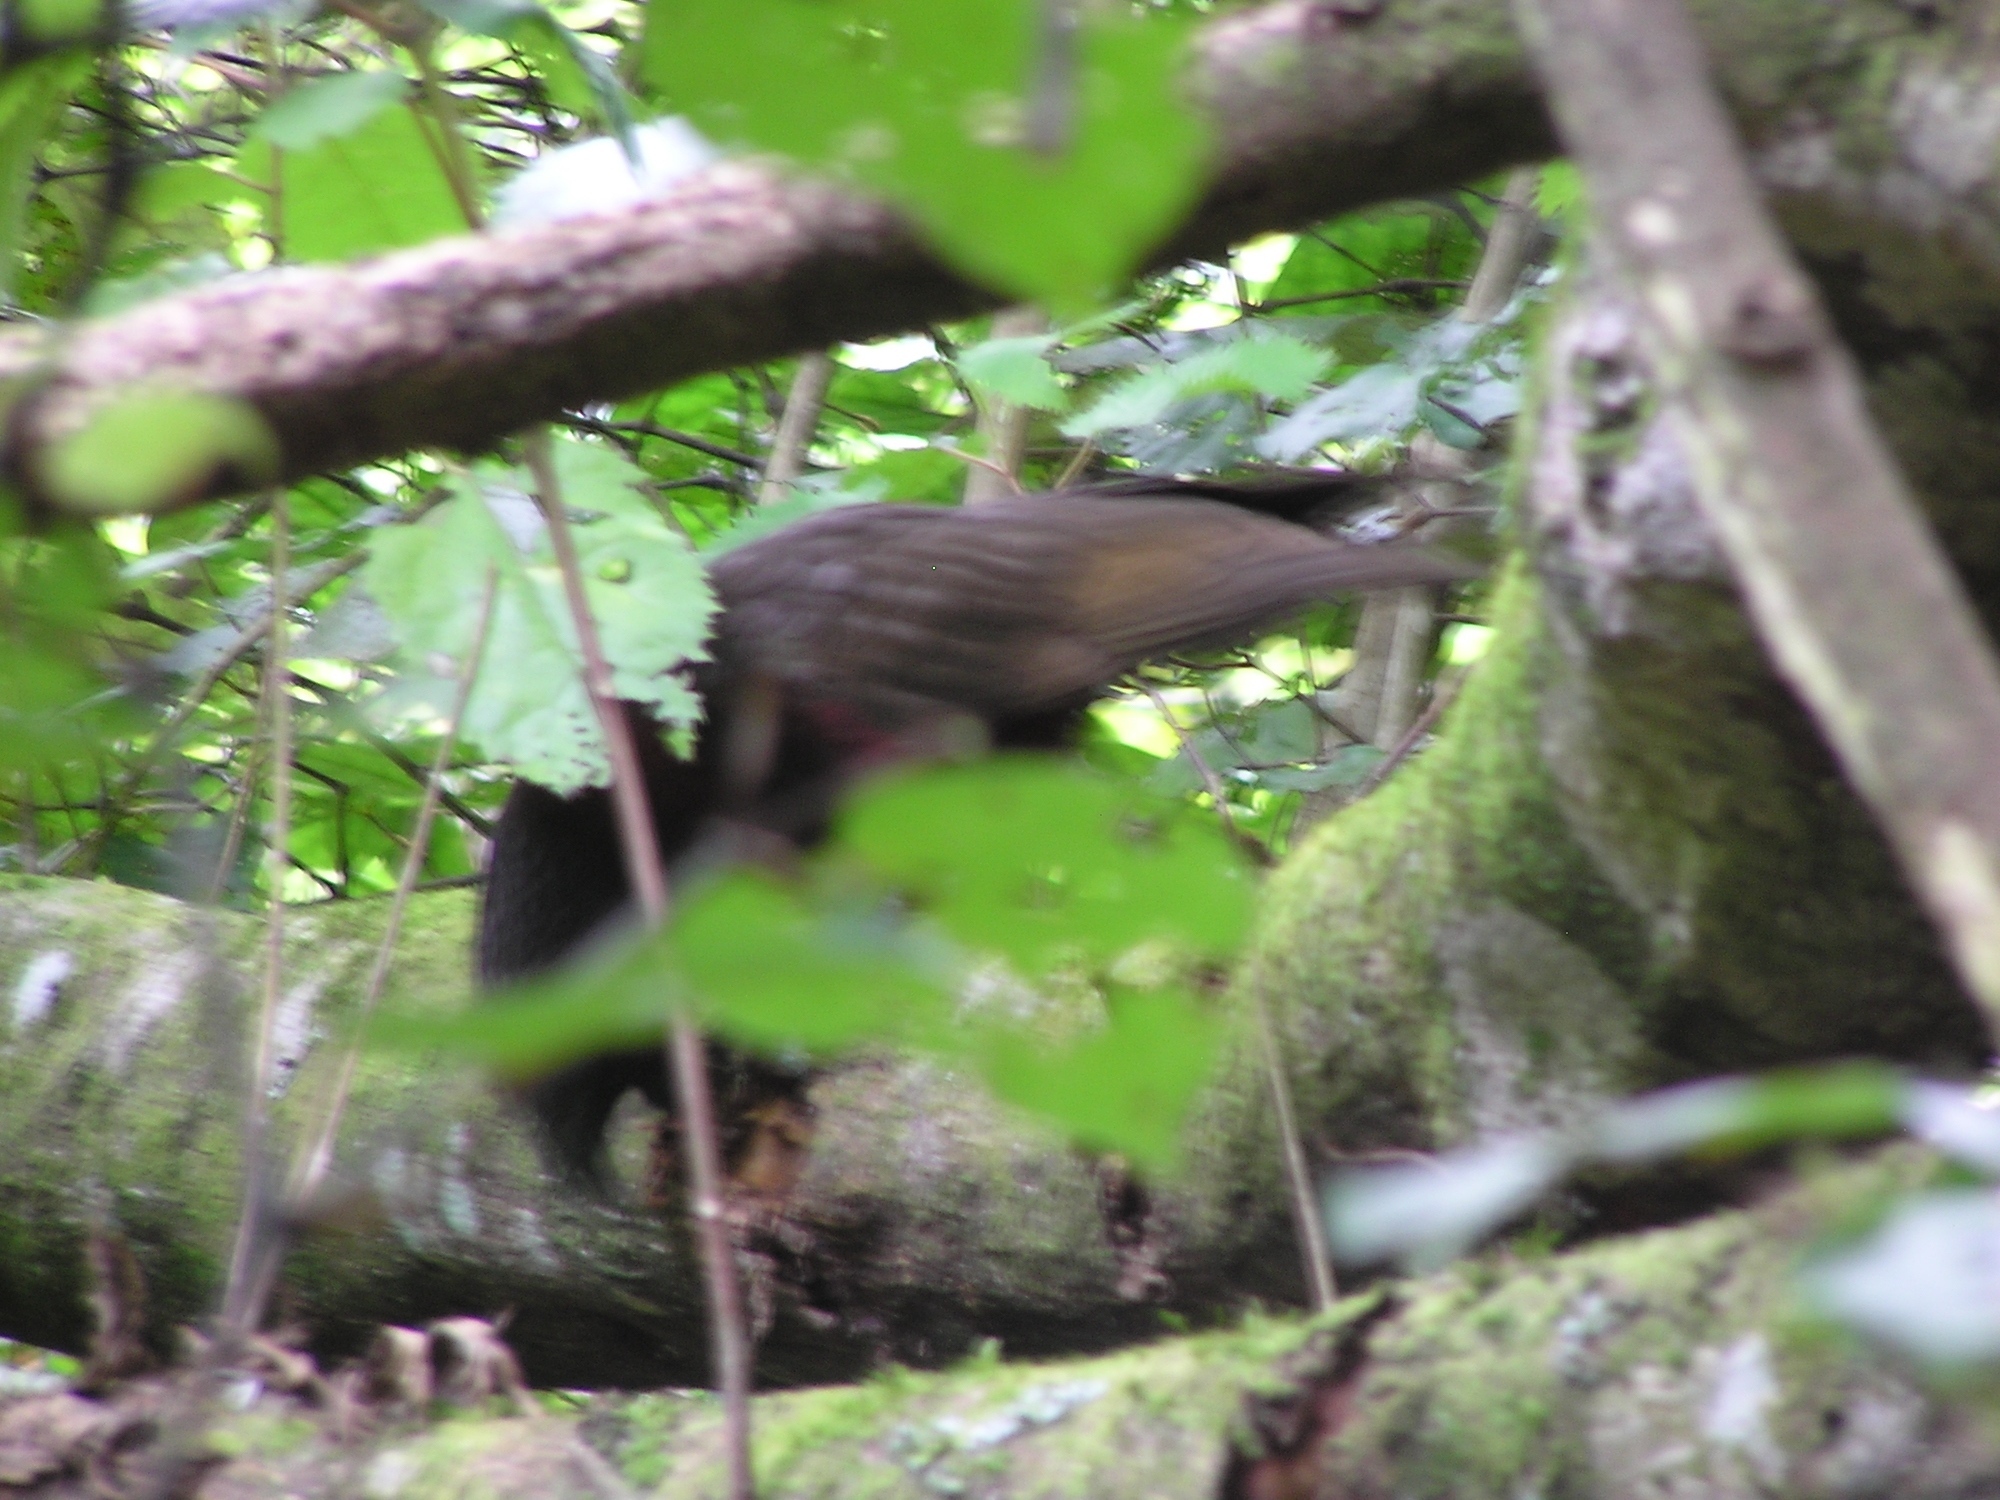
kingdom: Animalia
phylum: Chordata
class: Aves
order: Psittaciformes
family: Psittacidae
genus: Nestor
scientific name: Nestor meridionalis
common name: New zealand kaka
